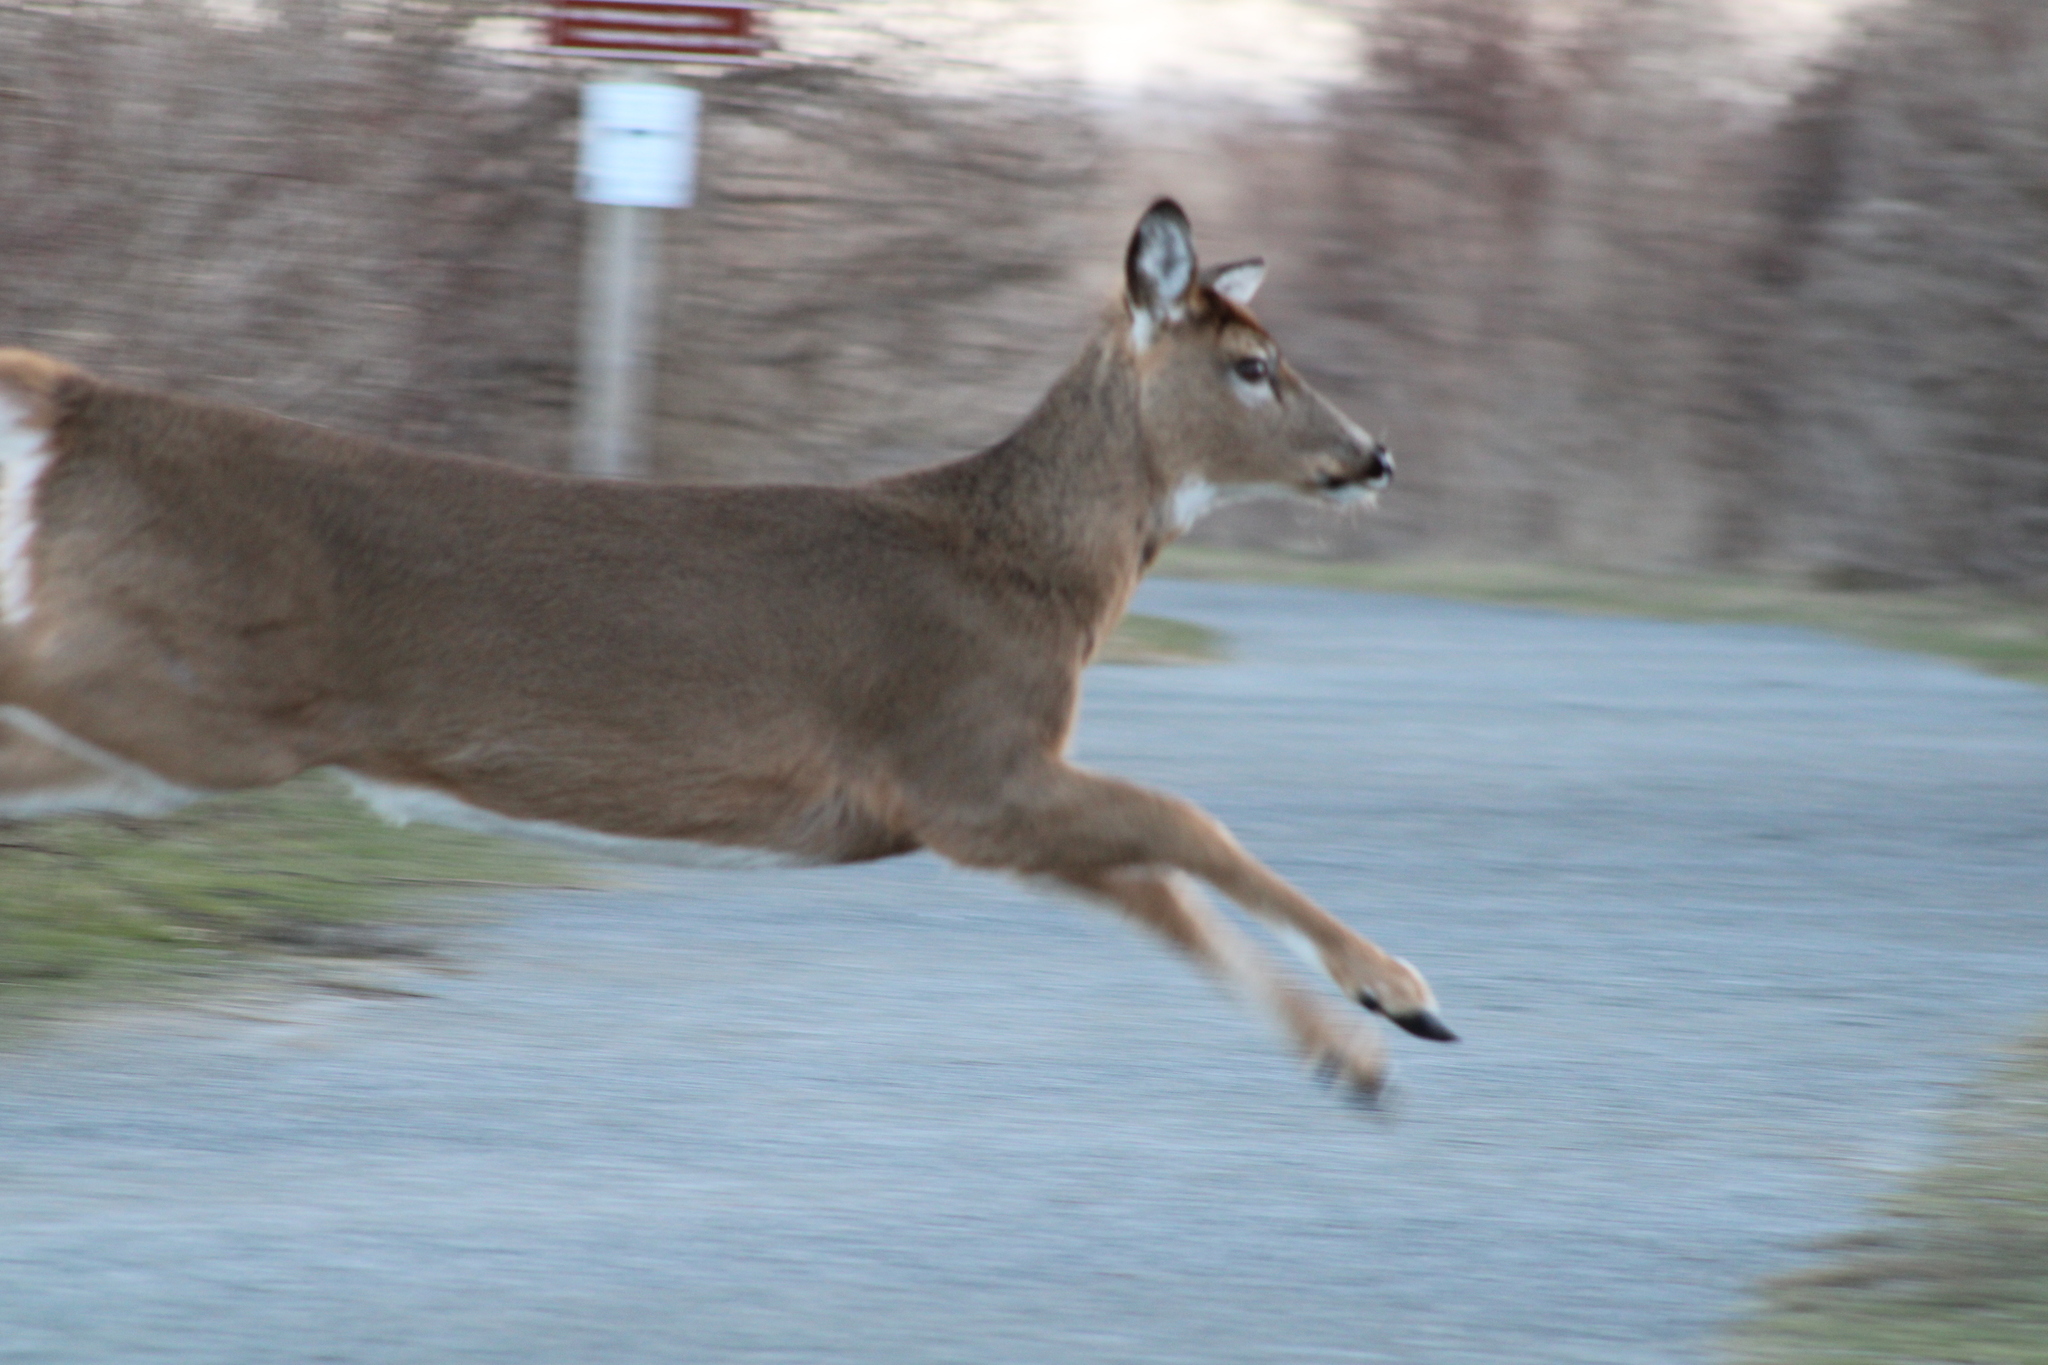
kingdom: Animalia
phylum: Chordata
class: Mammalia
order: Artiodactyla
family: Cervidae
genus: Odocoileus
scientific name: Odocoileus virginianus
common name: White-tailed deer
